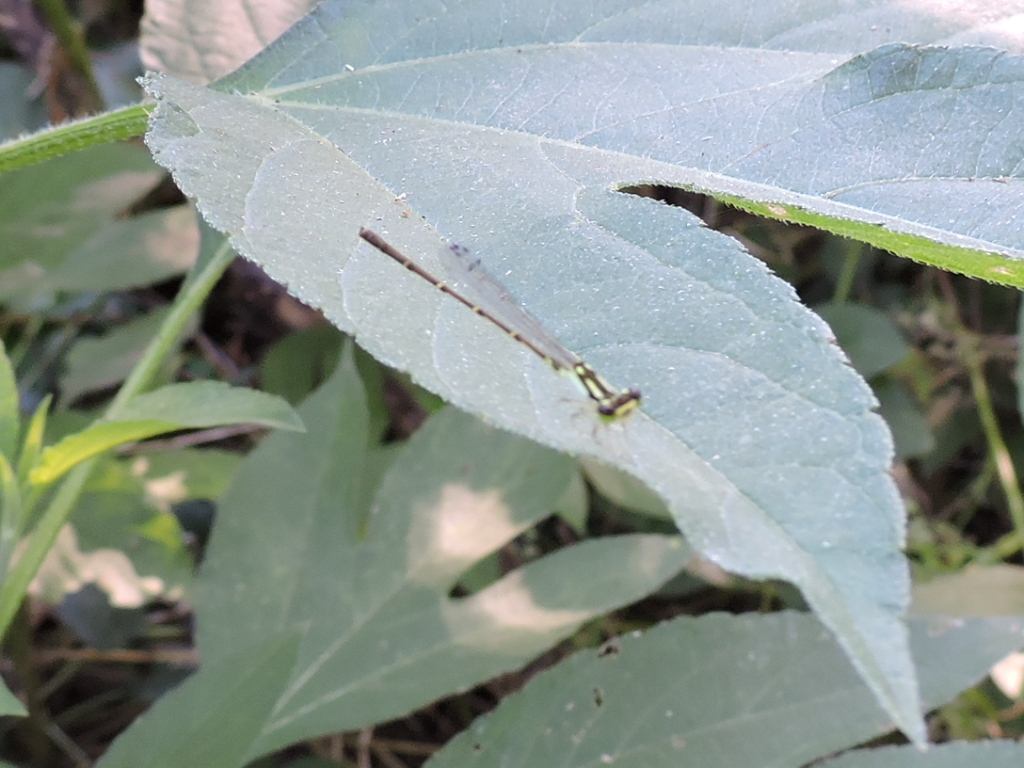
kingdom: Animalia
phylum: Arthropoda
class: Insecta
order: Odonata
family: Coenagrionidae
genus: Ischnura
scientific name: Ischnura posita
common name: Fragile forktail
